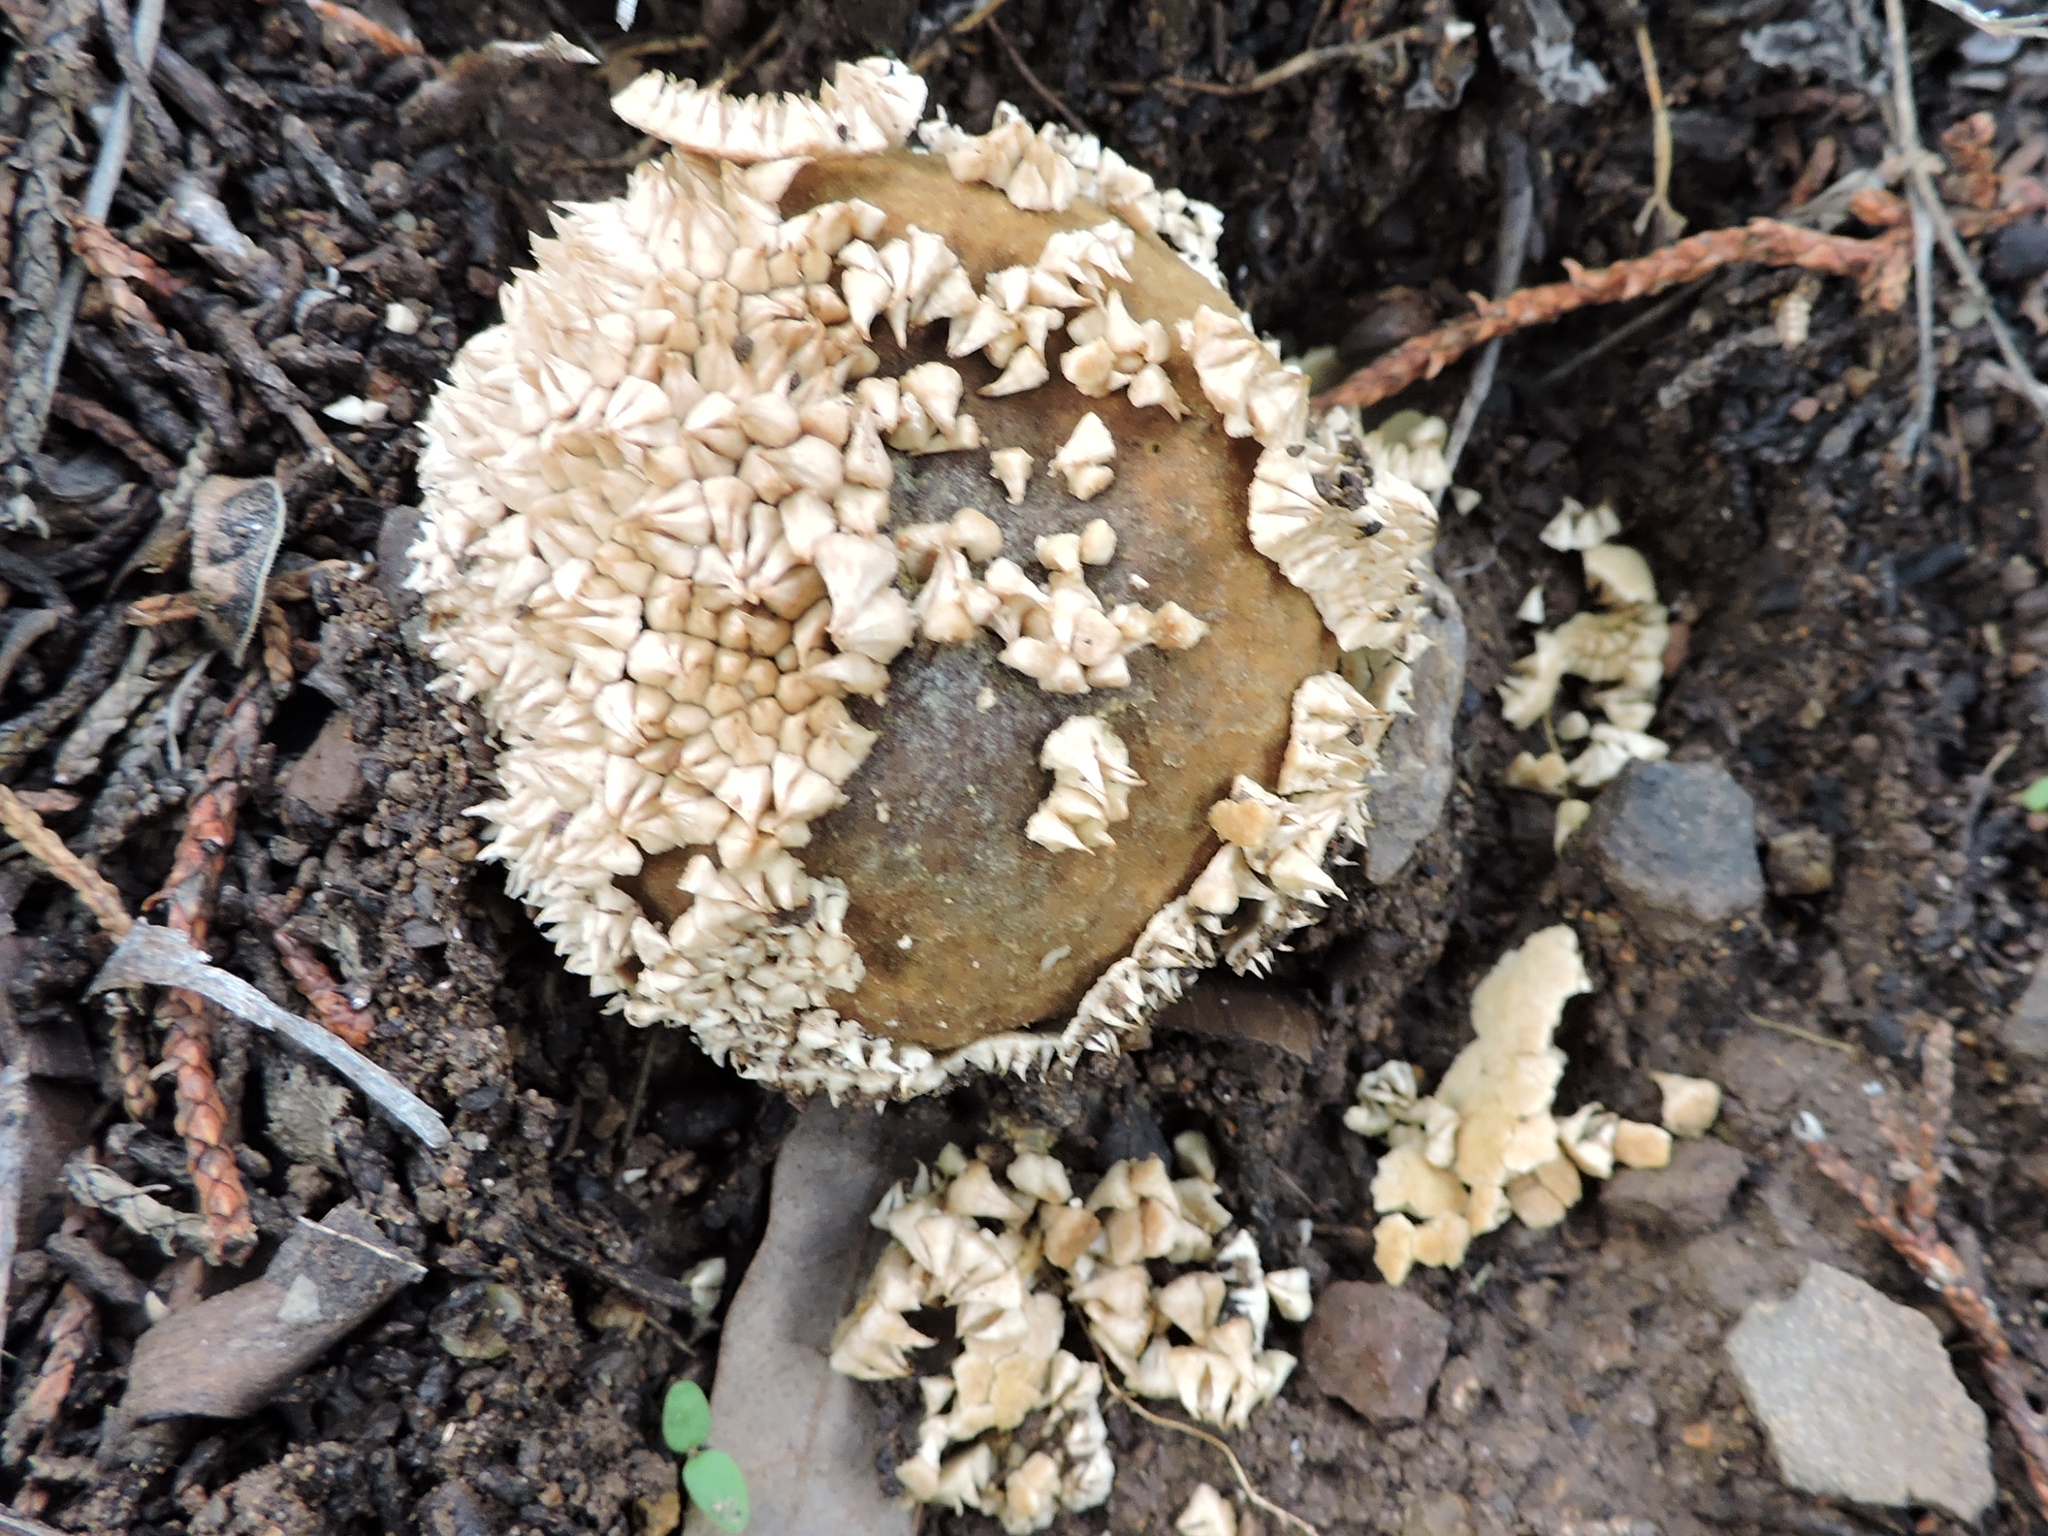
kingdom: Fungi
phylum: Basidiomycota
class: Agaricomycetes
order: Agaricales
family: Agaricaceae
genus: Lycoperdon
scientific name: Lycoperdon marginatum
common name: Peeling puffball
